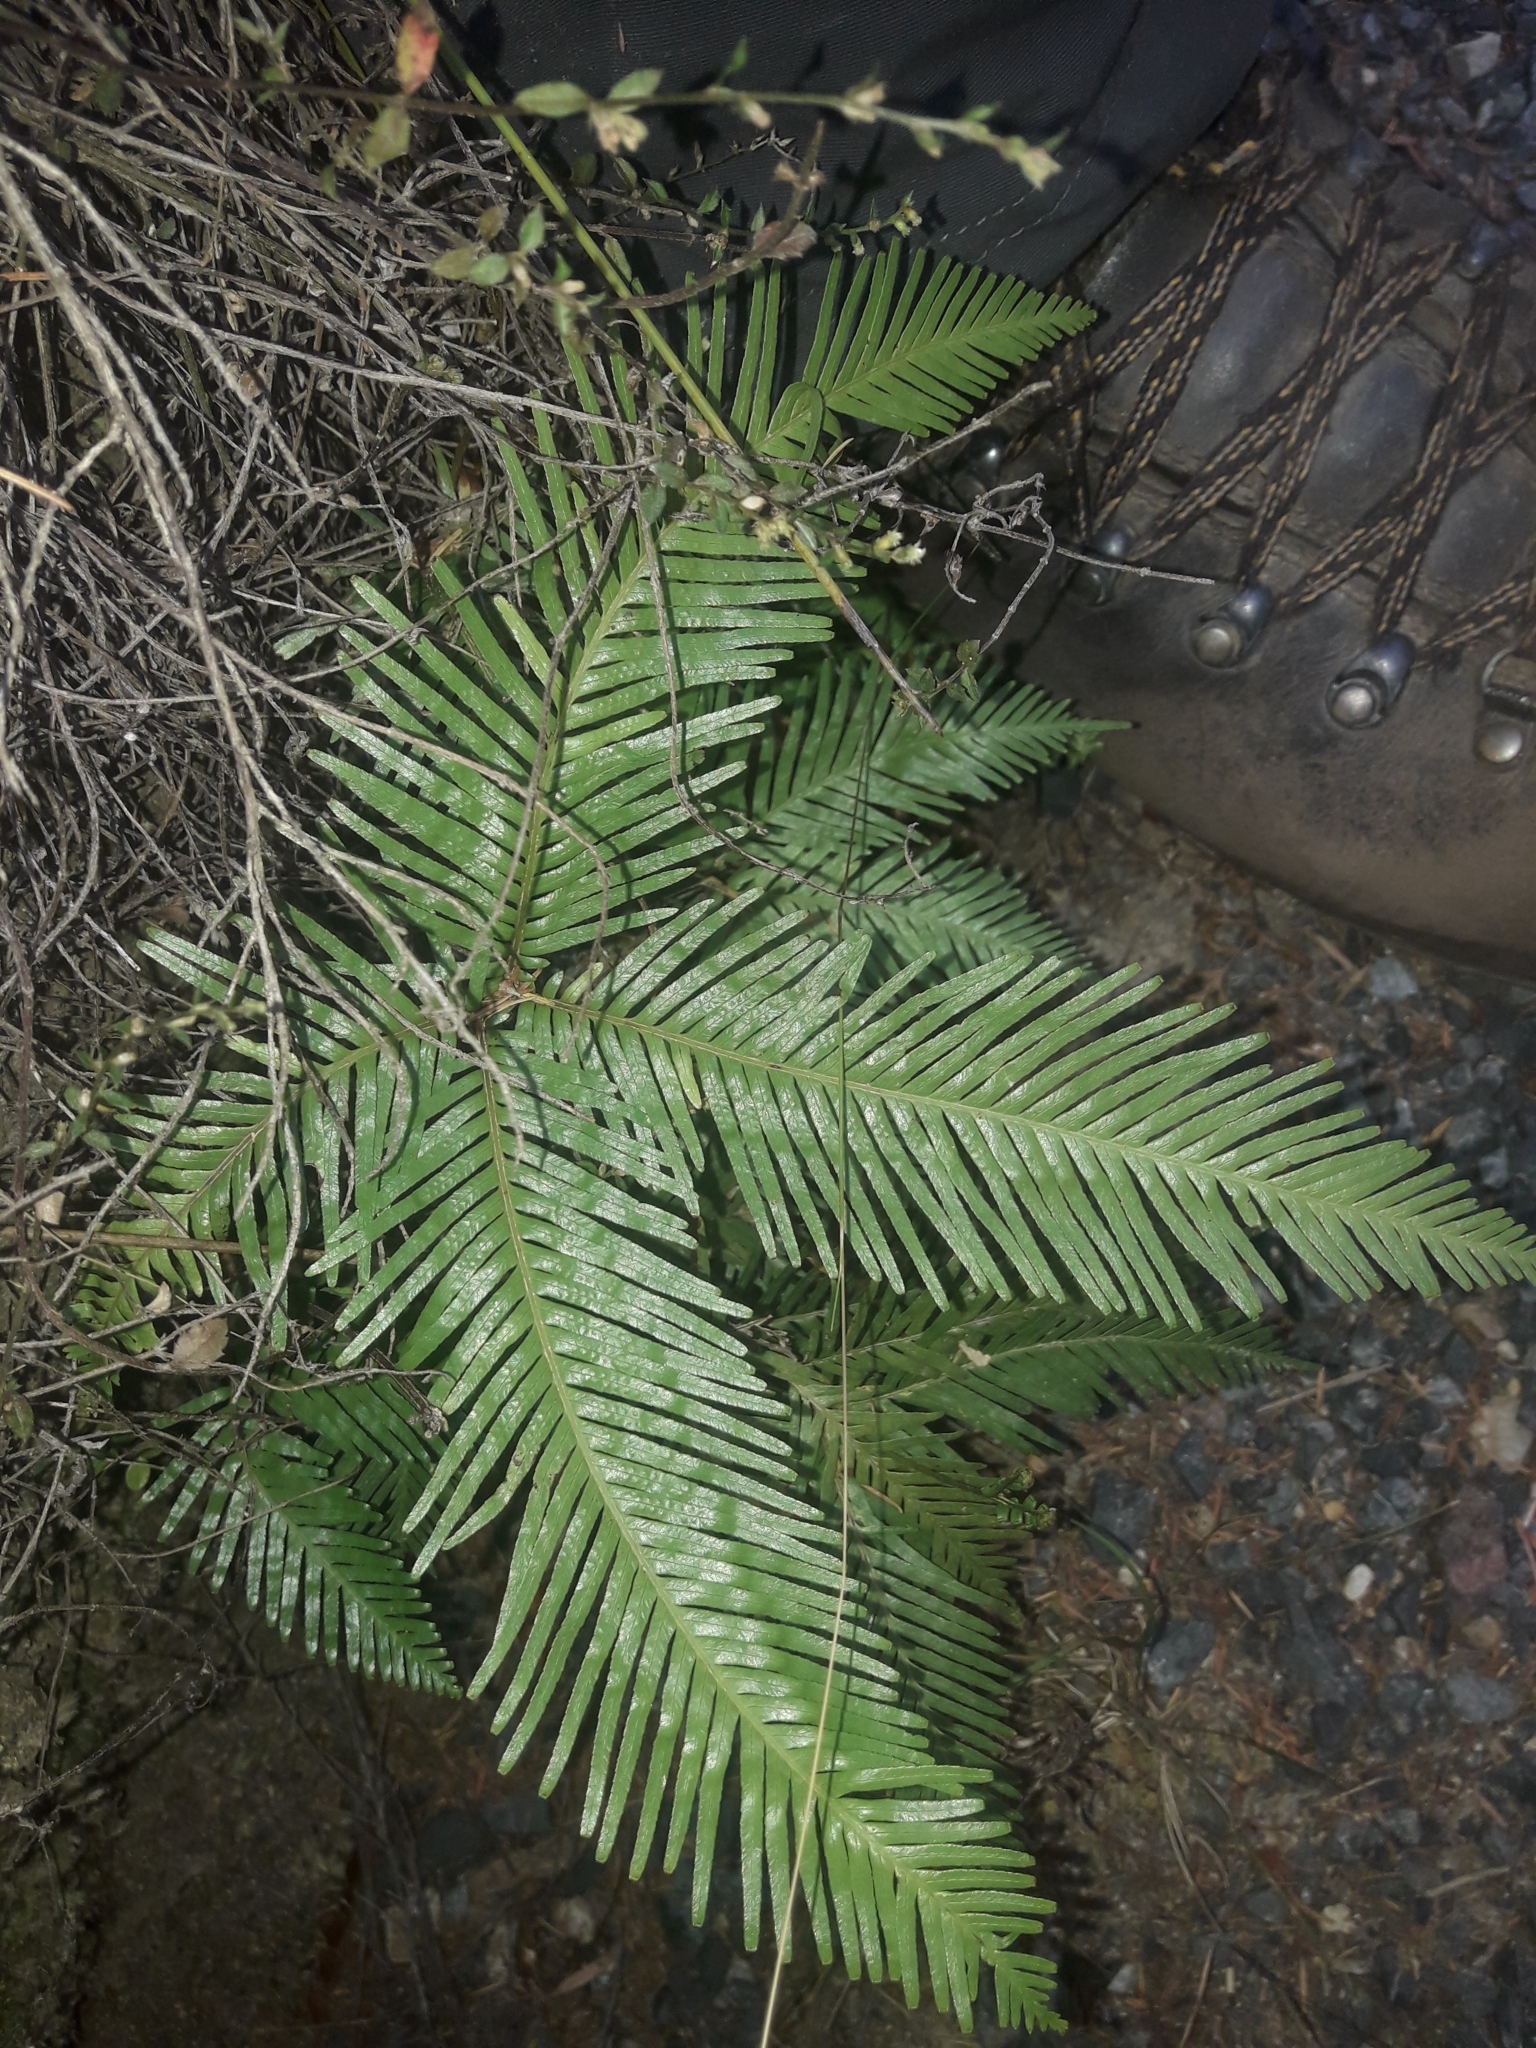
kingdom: Plantae
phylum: Tracheophyta
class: Polypodiopsida
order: Gleicheniales
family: Gleicheniaceae
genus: Sticherus
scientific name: Sticherus flabellatus
